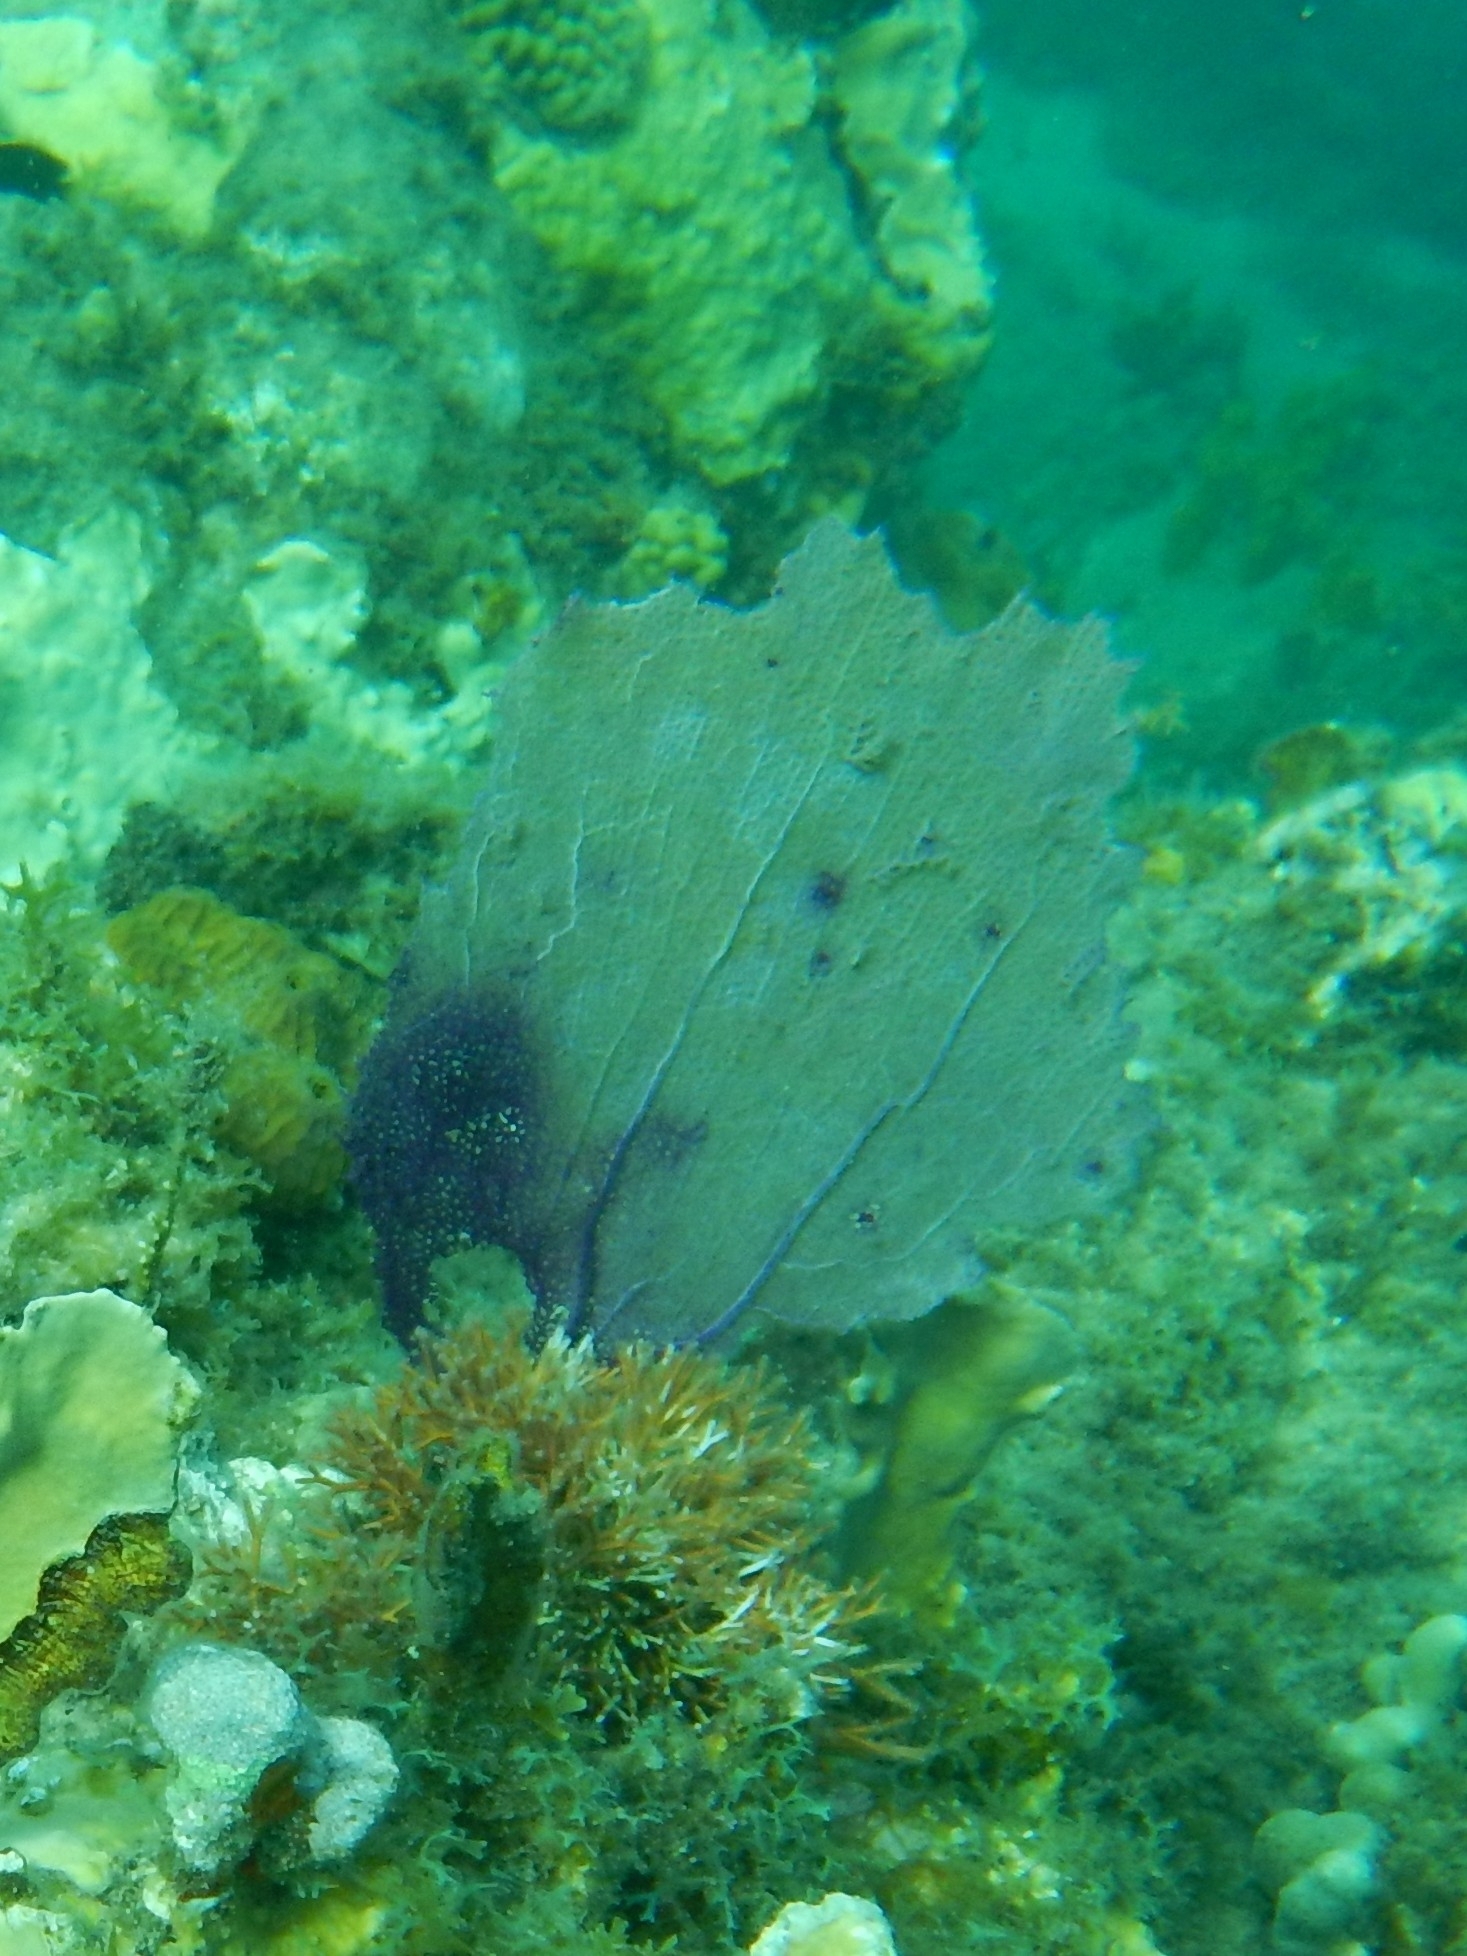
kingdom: Animalia
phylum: Cnidaria
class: Anthozoa
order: Malacalcyonacea
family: Gorgoniidae
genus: Gorgonia
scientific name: Gorgonia ventalina
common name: Common sea fan
